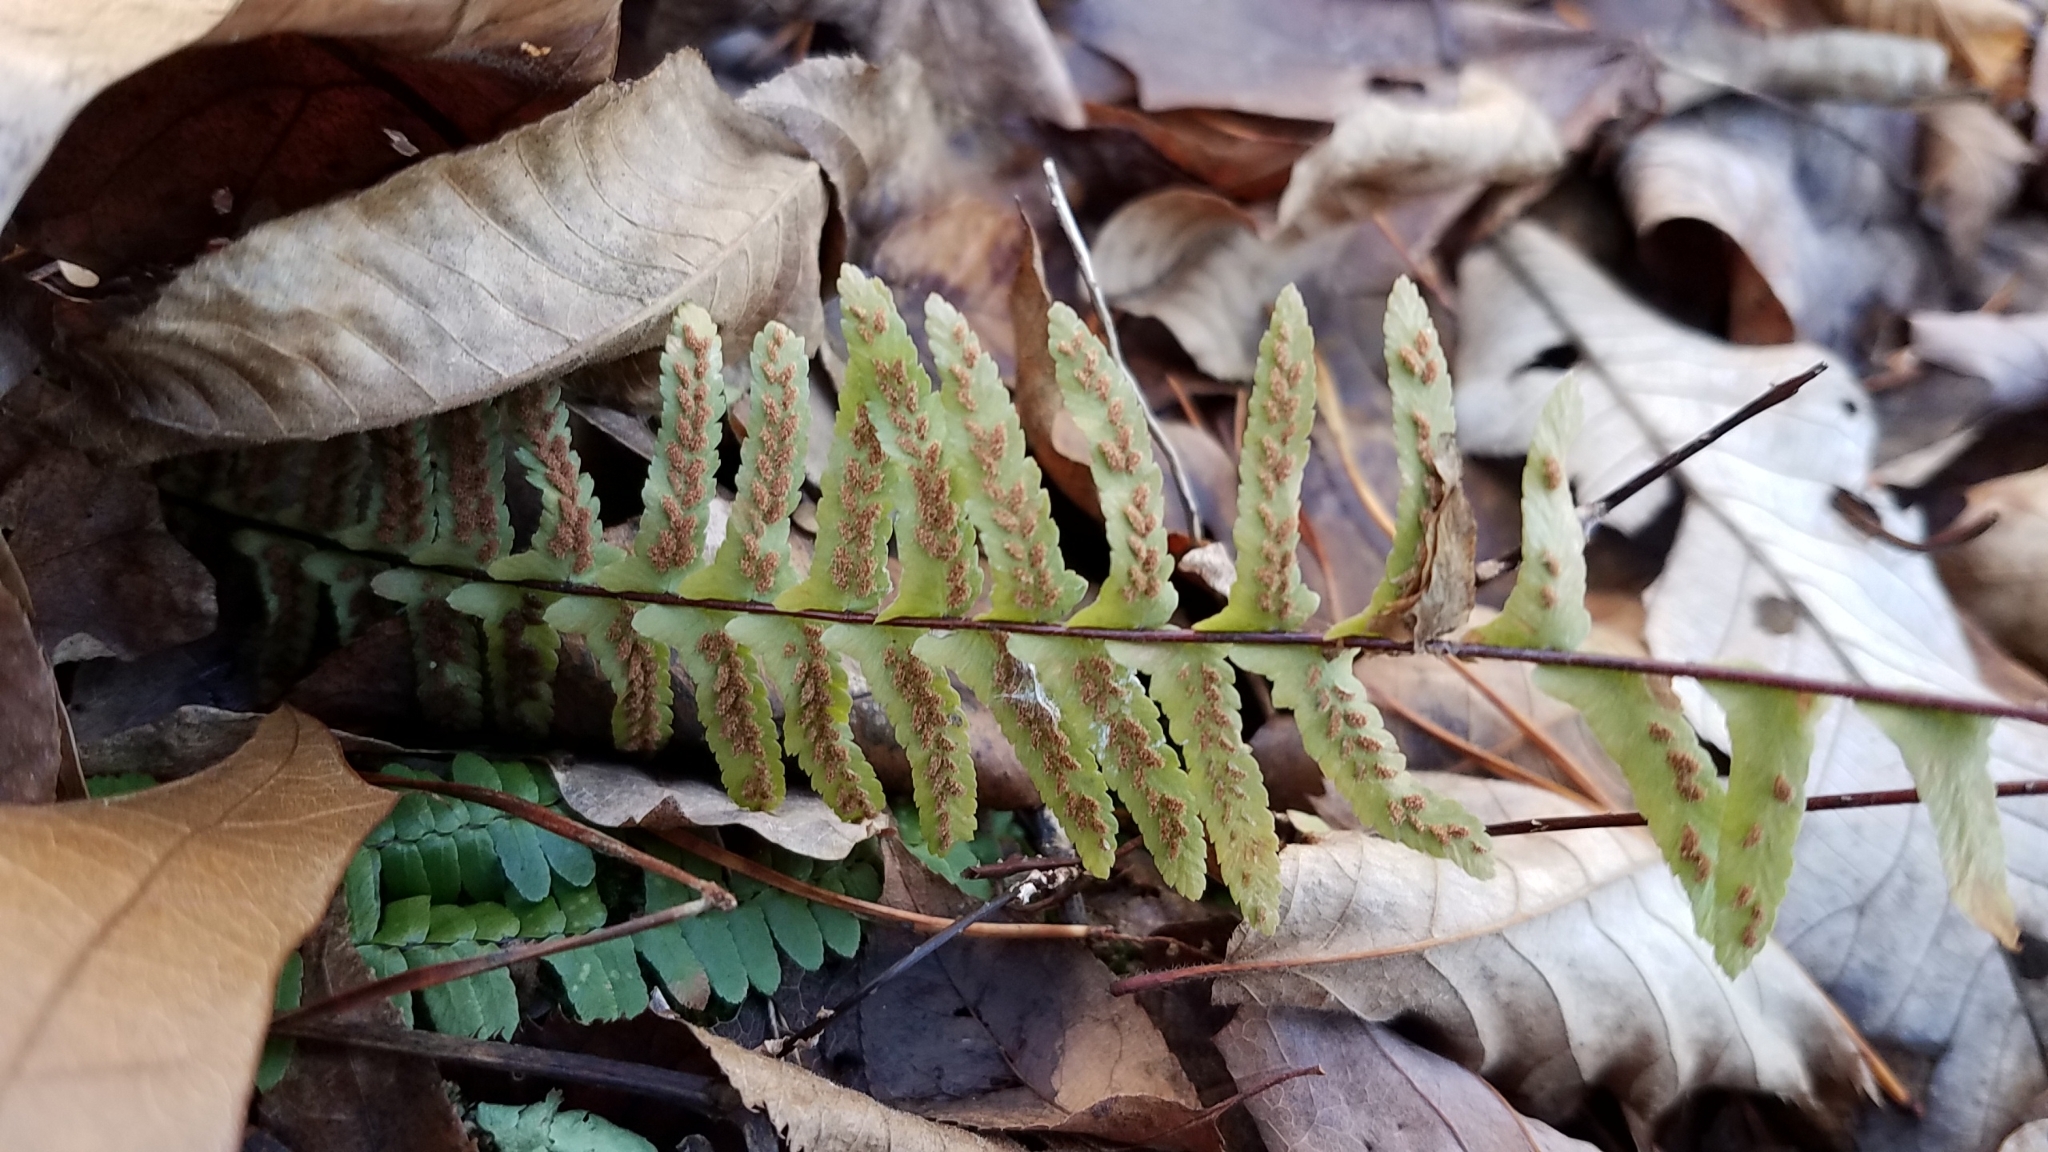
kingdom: Plantae
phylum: Tracheophyta
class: Polypodiopsida
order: Polypodiales
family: Aspleniaceae
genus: Asplenium
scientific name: Asplenium platyneuron
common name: Ebony spleenwort
